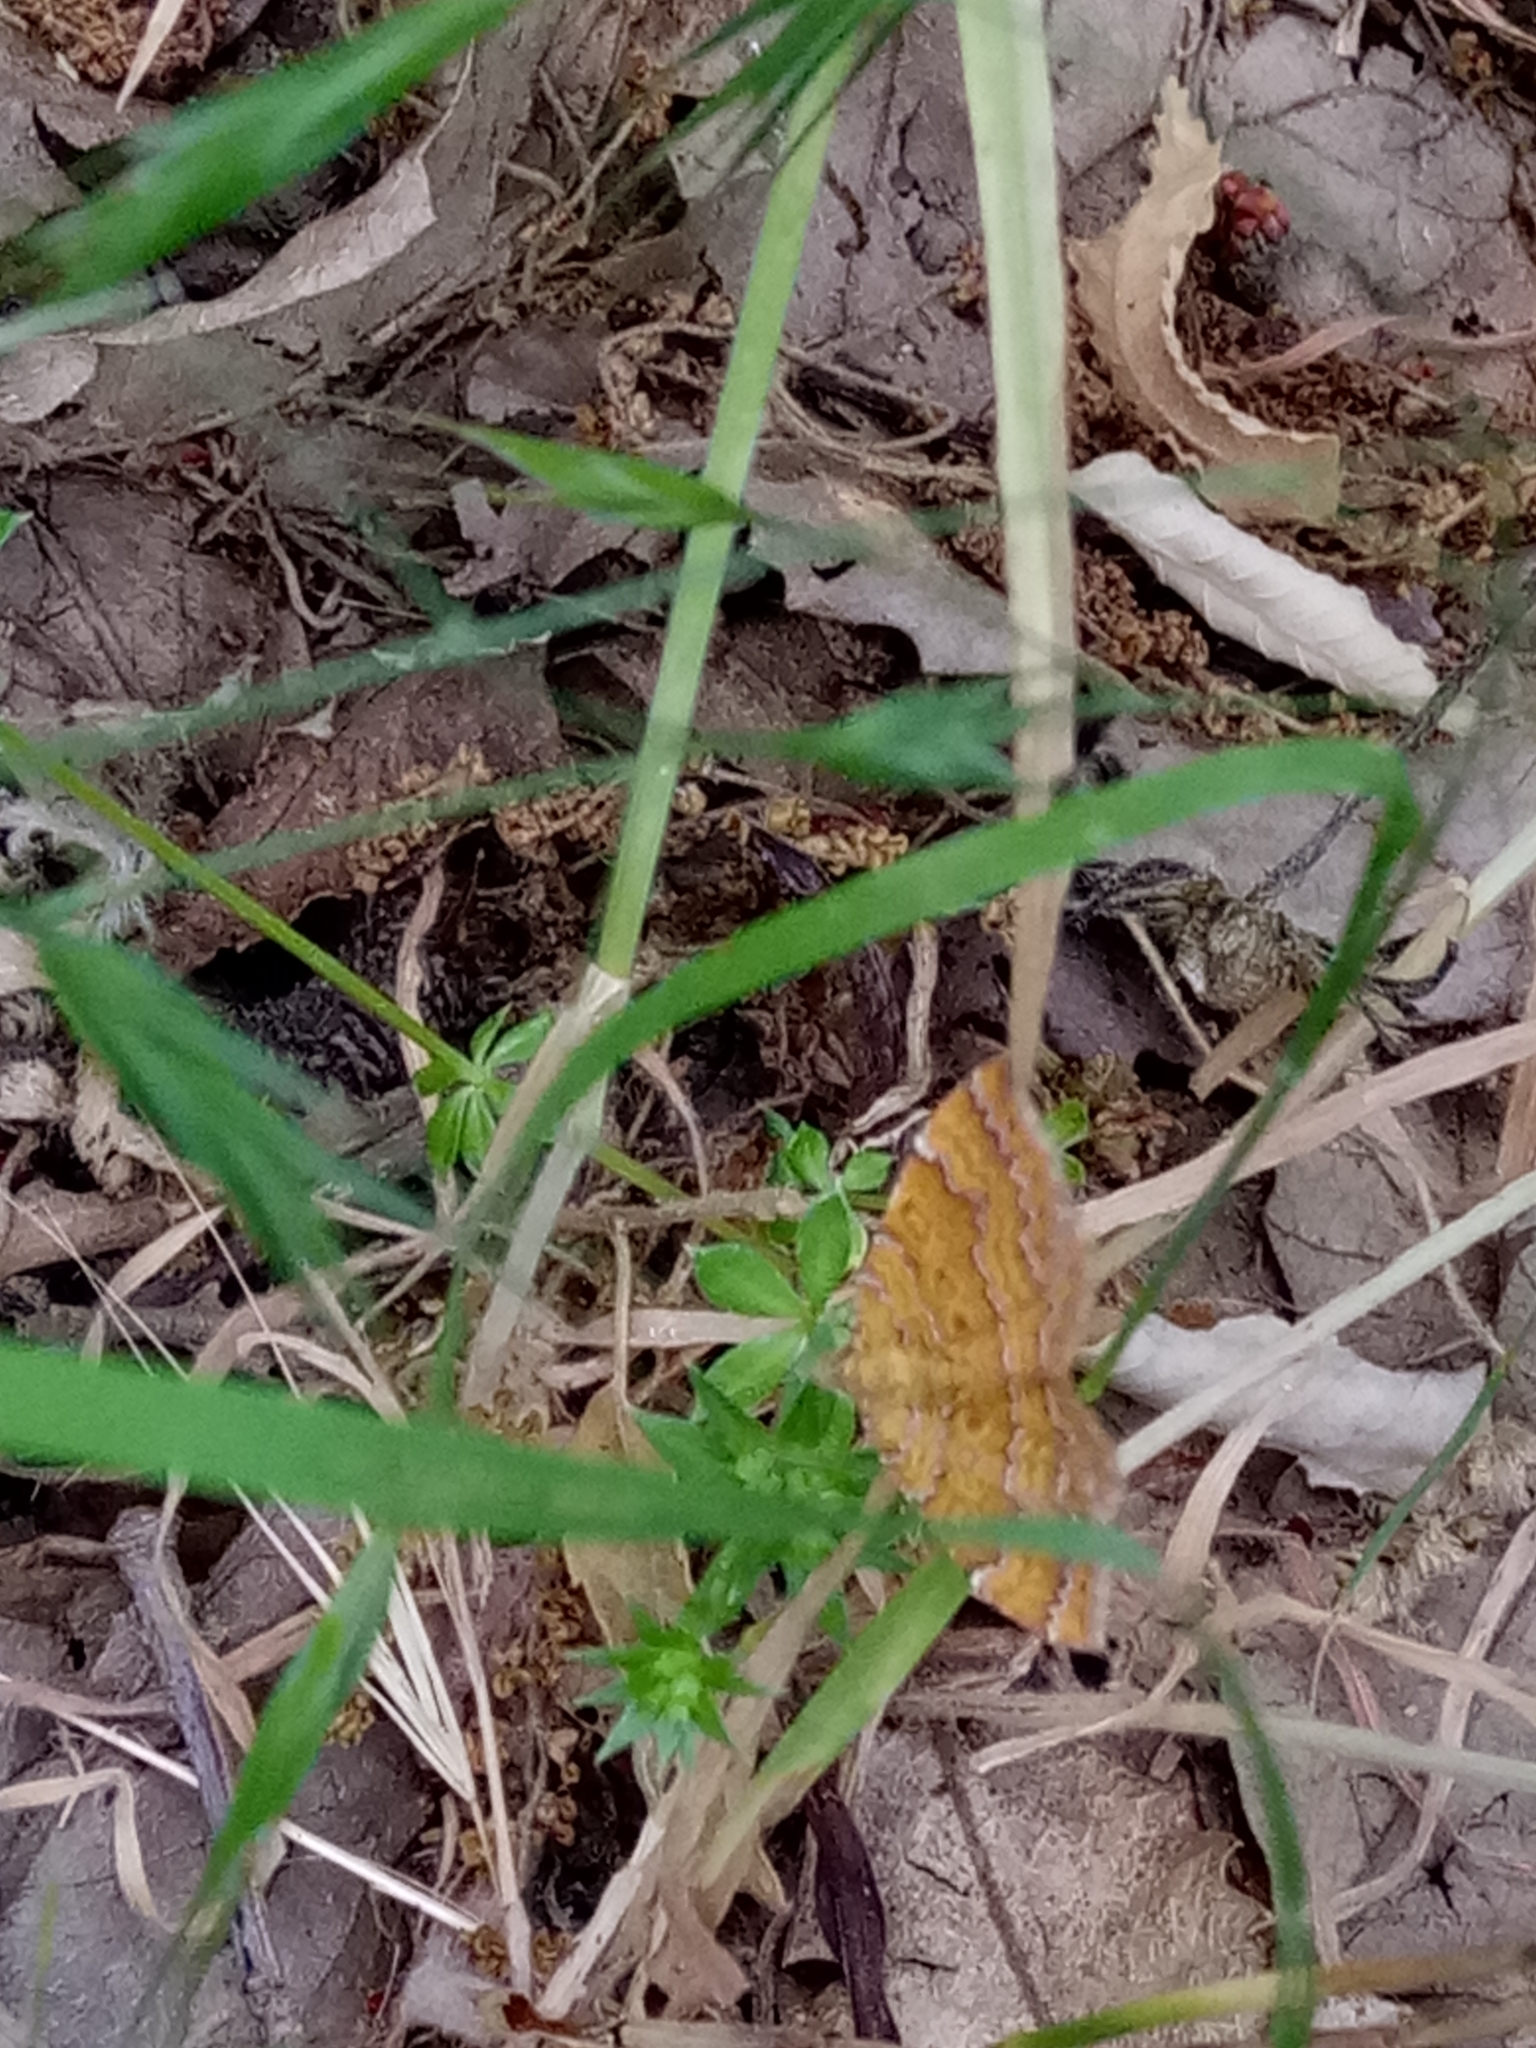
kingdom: Animalia
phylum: Arthropoda
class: Insecta
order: Lepidoptera
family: Geometridae
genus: Camptogramma
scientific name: Camptogramma bilineata
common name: Yellow shell
